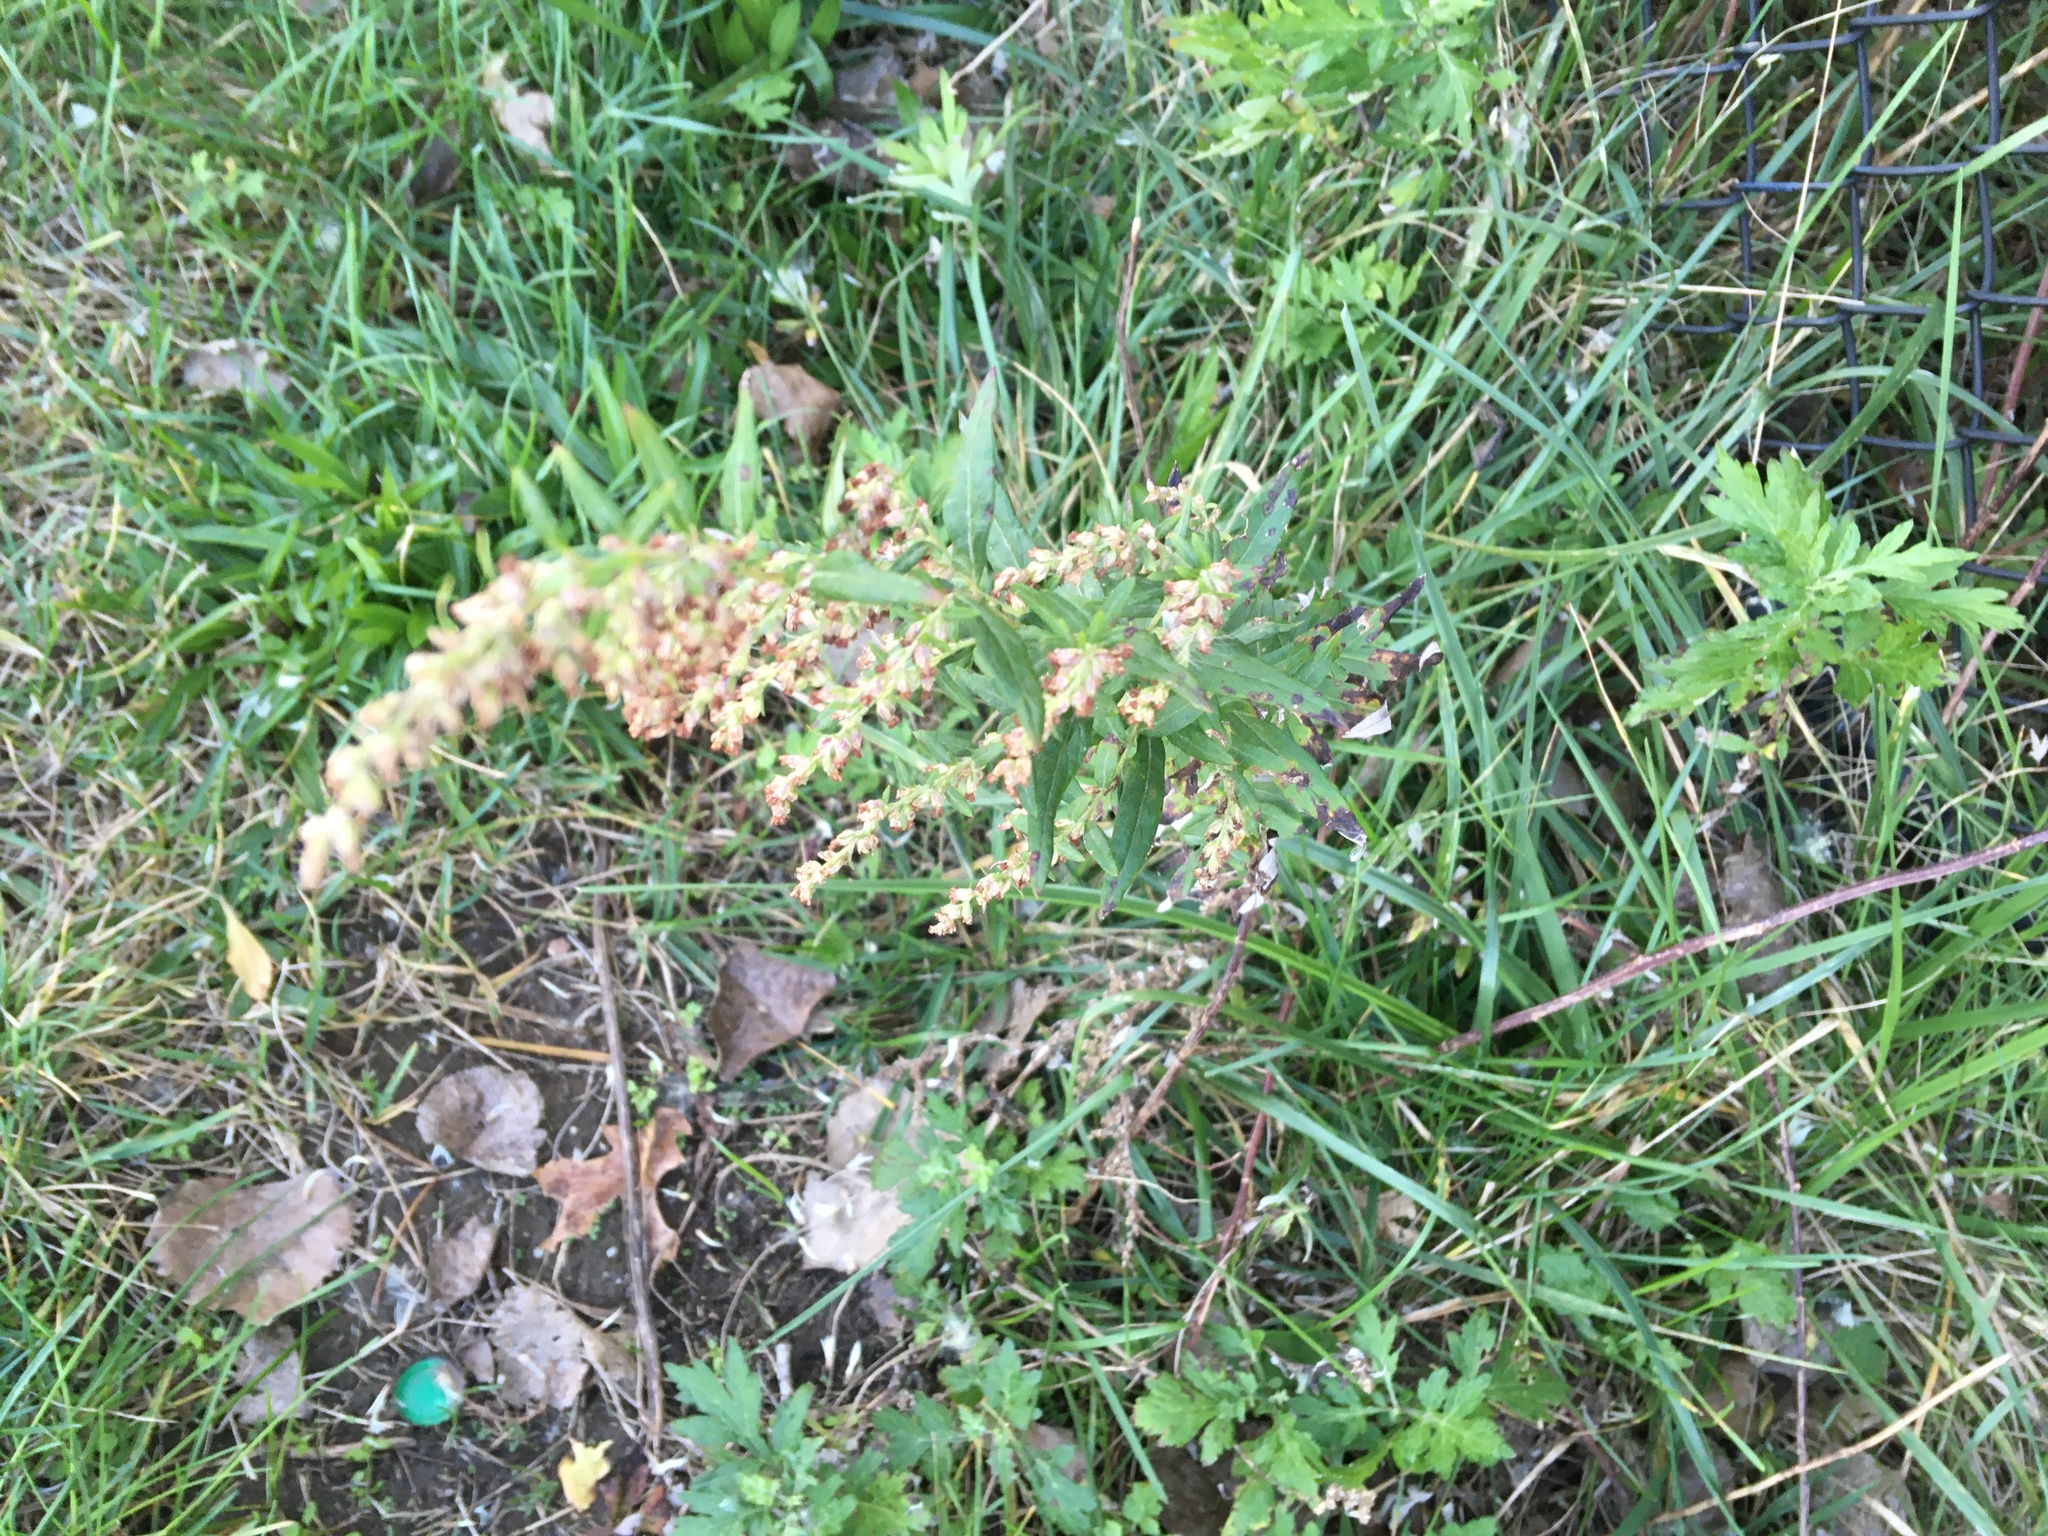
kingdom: Plantae
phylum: Tracheophyta
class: Magnoliopsida
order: Asterales
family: Asteraceae
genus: Artemisia
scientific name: Artemisia vulgaris
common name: Mugwort
